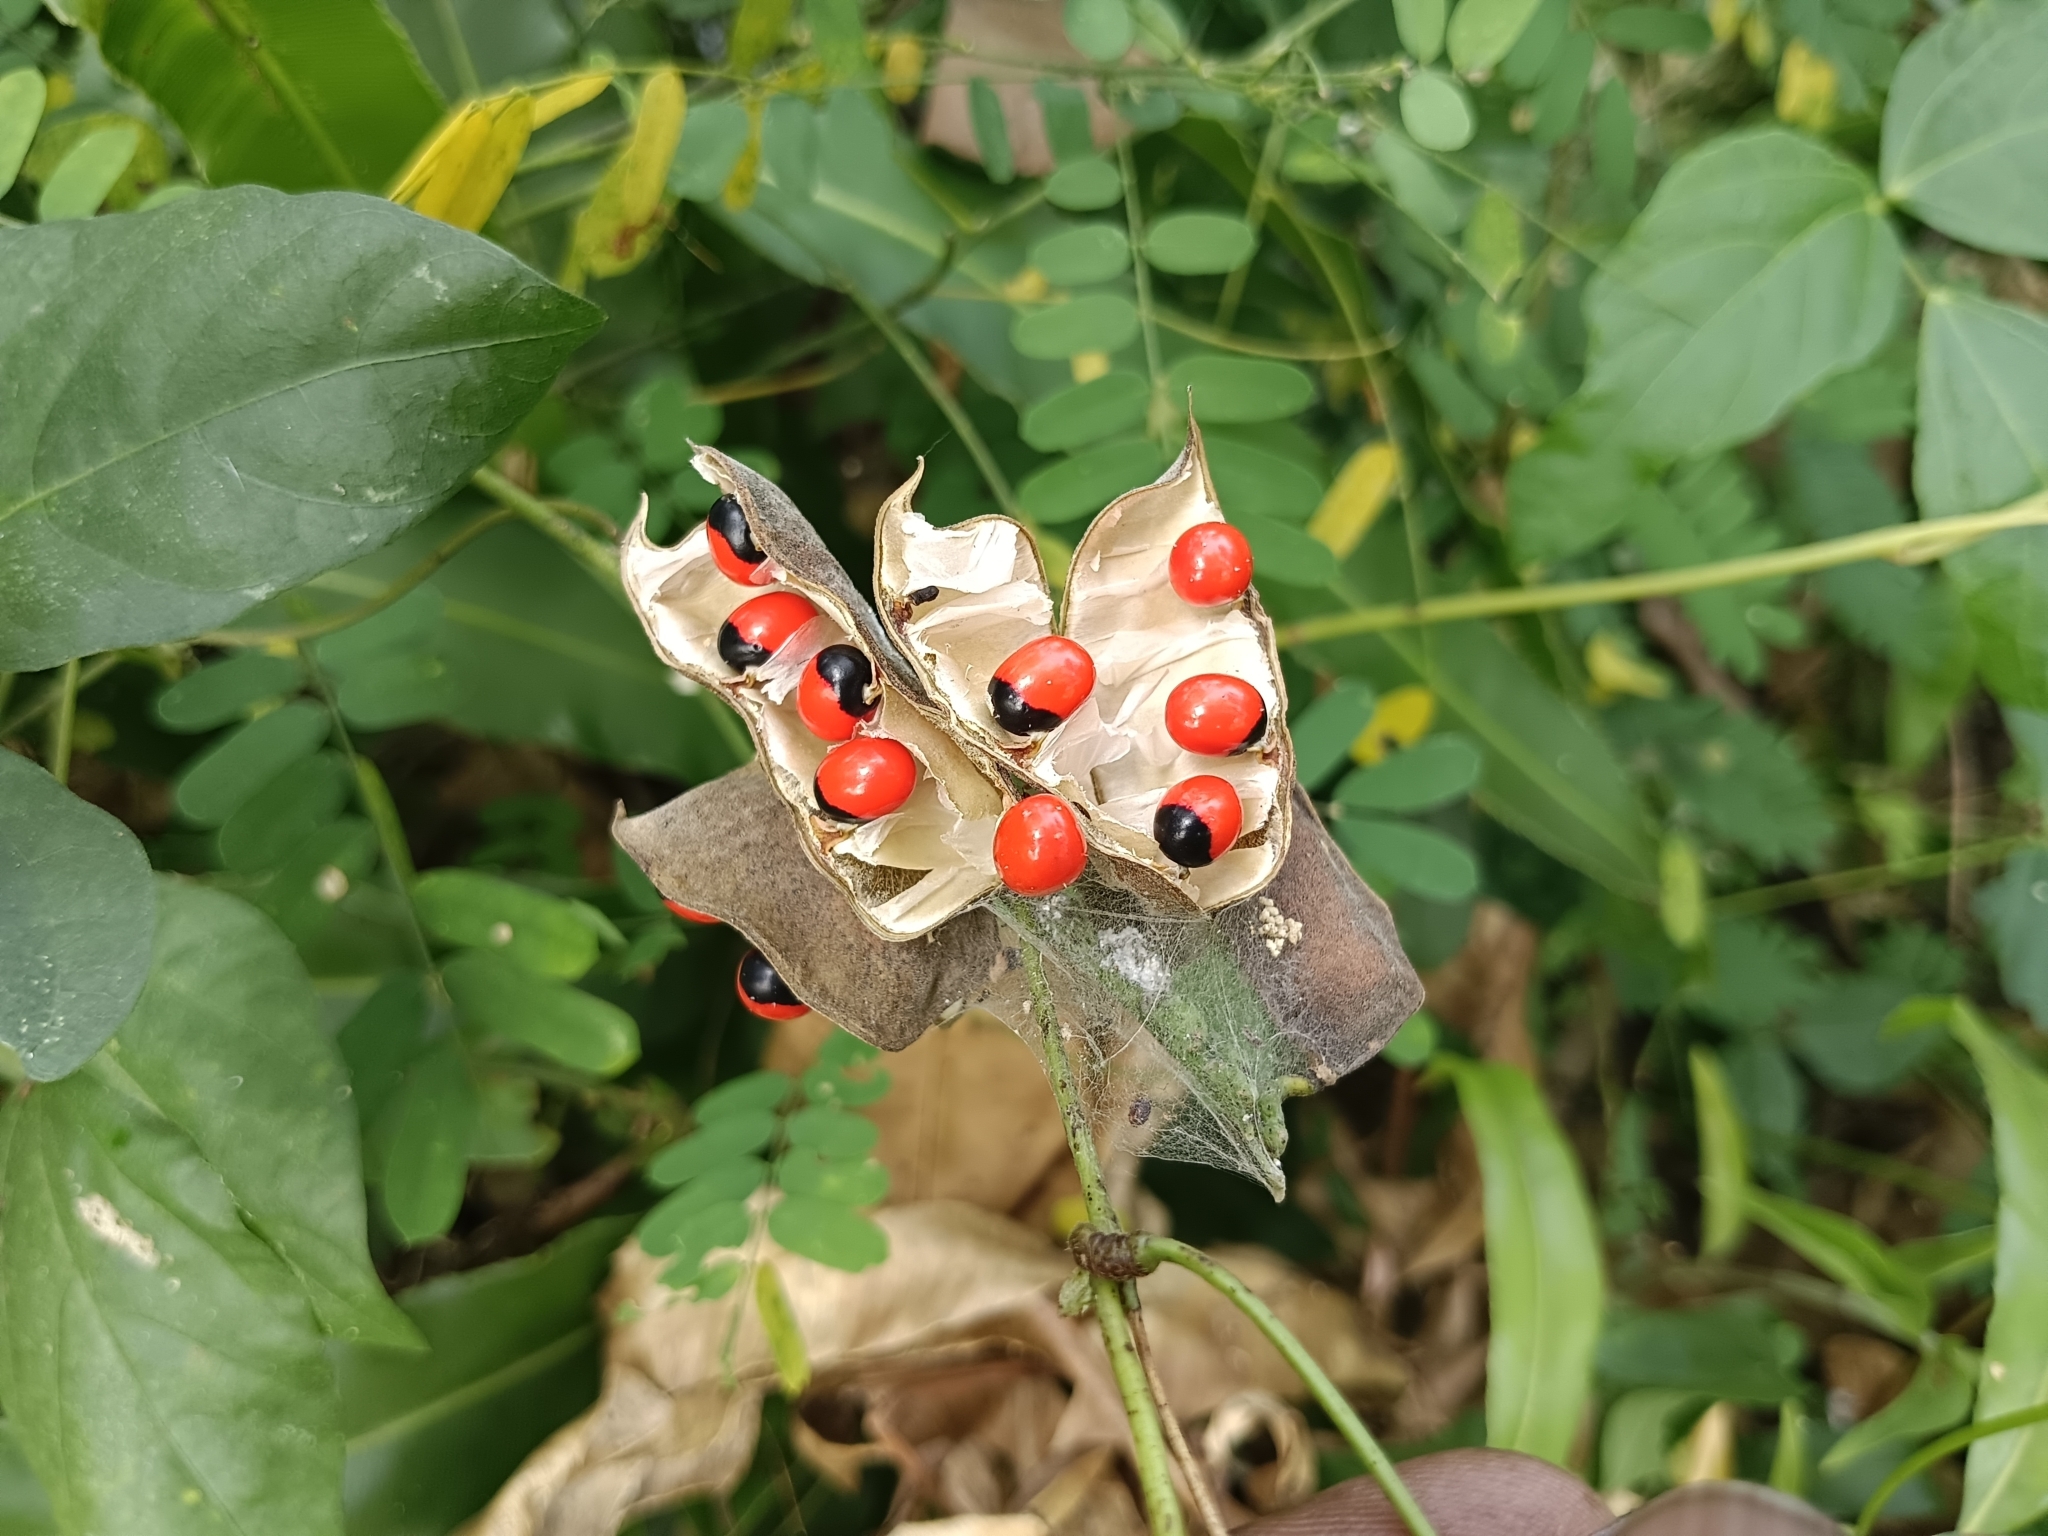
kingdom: Plantae
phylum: Tracheophyta
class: Magnoliopsida
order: Fabales
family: Fabaceae
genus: Abrus
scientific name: Abrus precatorius
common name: Rosarypea
